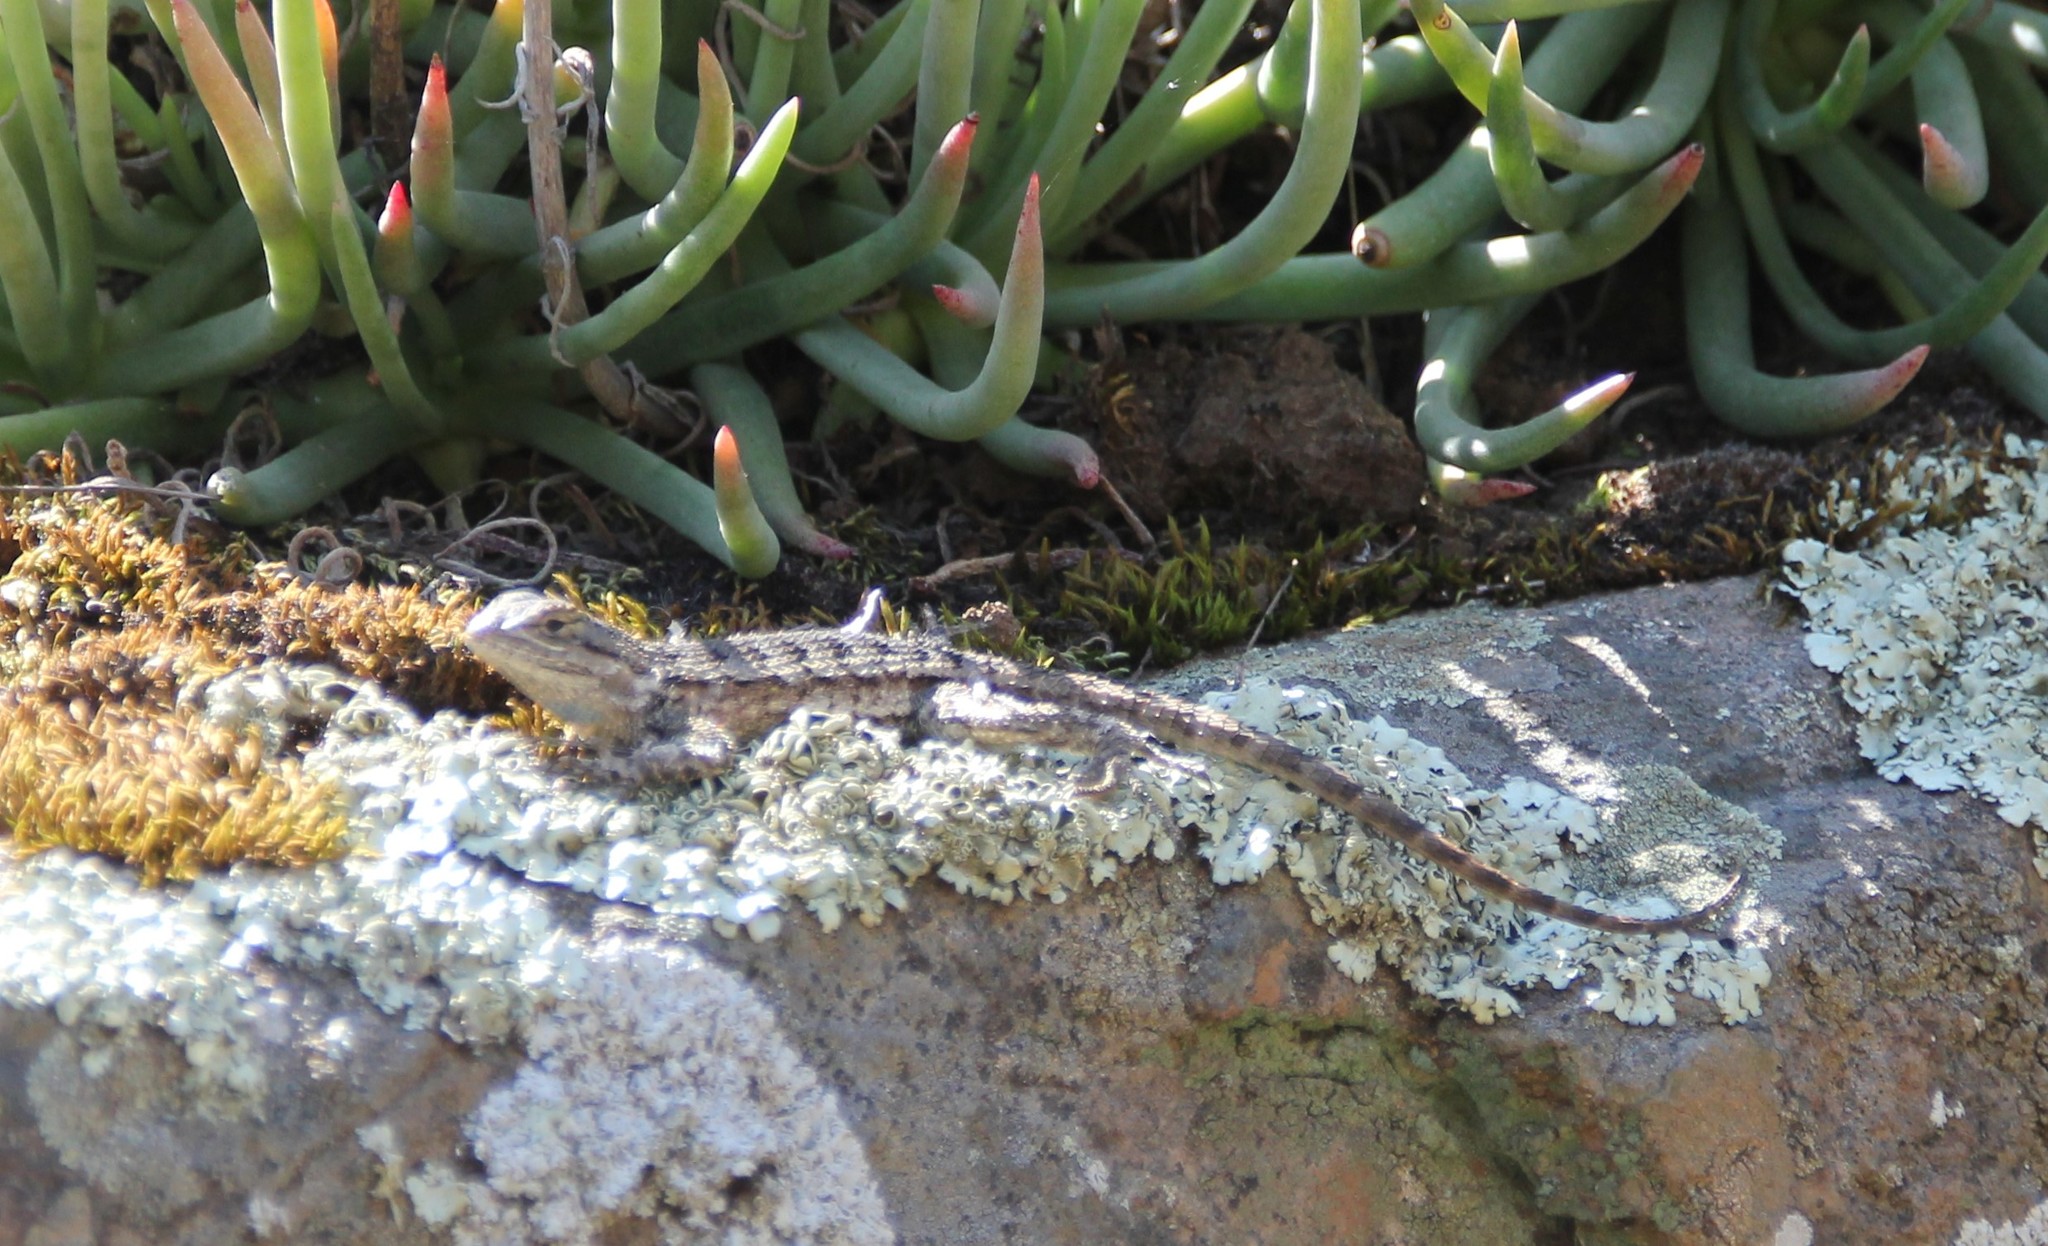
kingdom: Animalia
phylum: Chordata
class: Squamata
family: Phrynosomatidae
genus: Sceloporus
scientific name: Sceloporus occidentalis
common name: Western fence lizard
